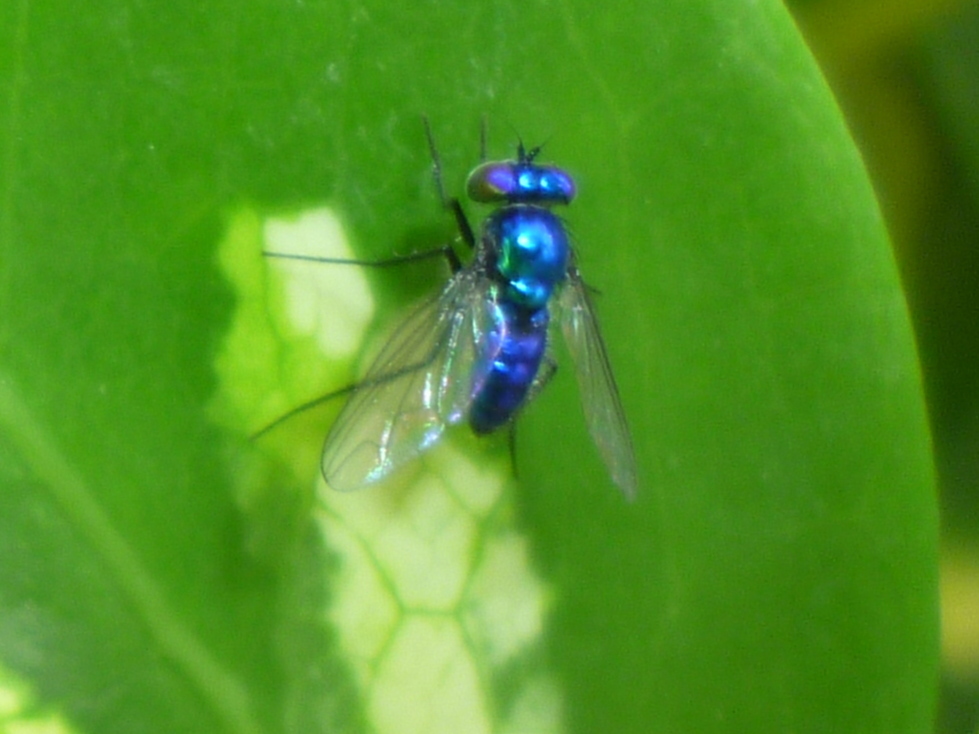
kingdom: Animalia
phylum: Arthropoda
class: Insecta
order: Diptera
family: Dolichopodidae
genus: Condylostylus
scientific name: Condylostylus mundus
